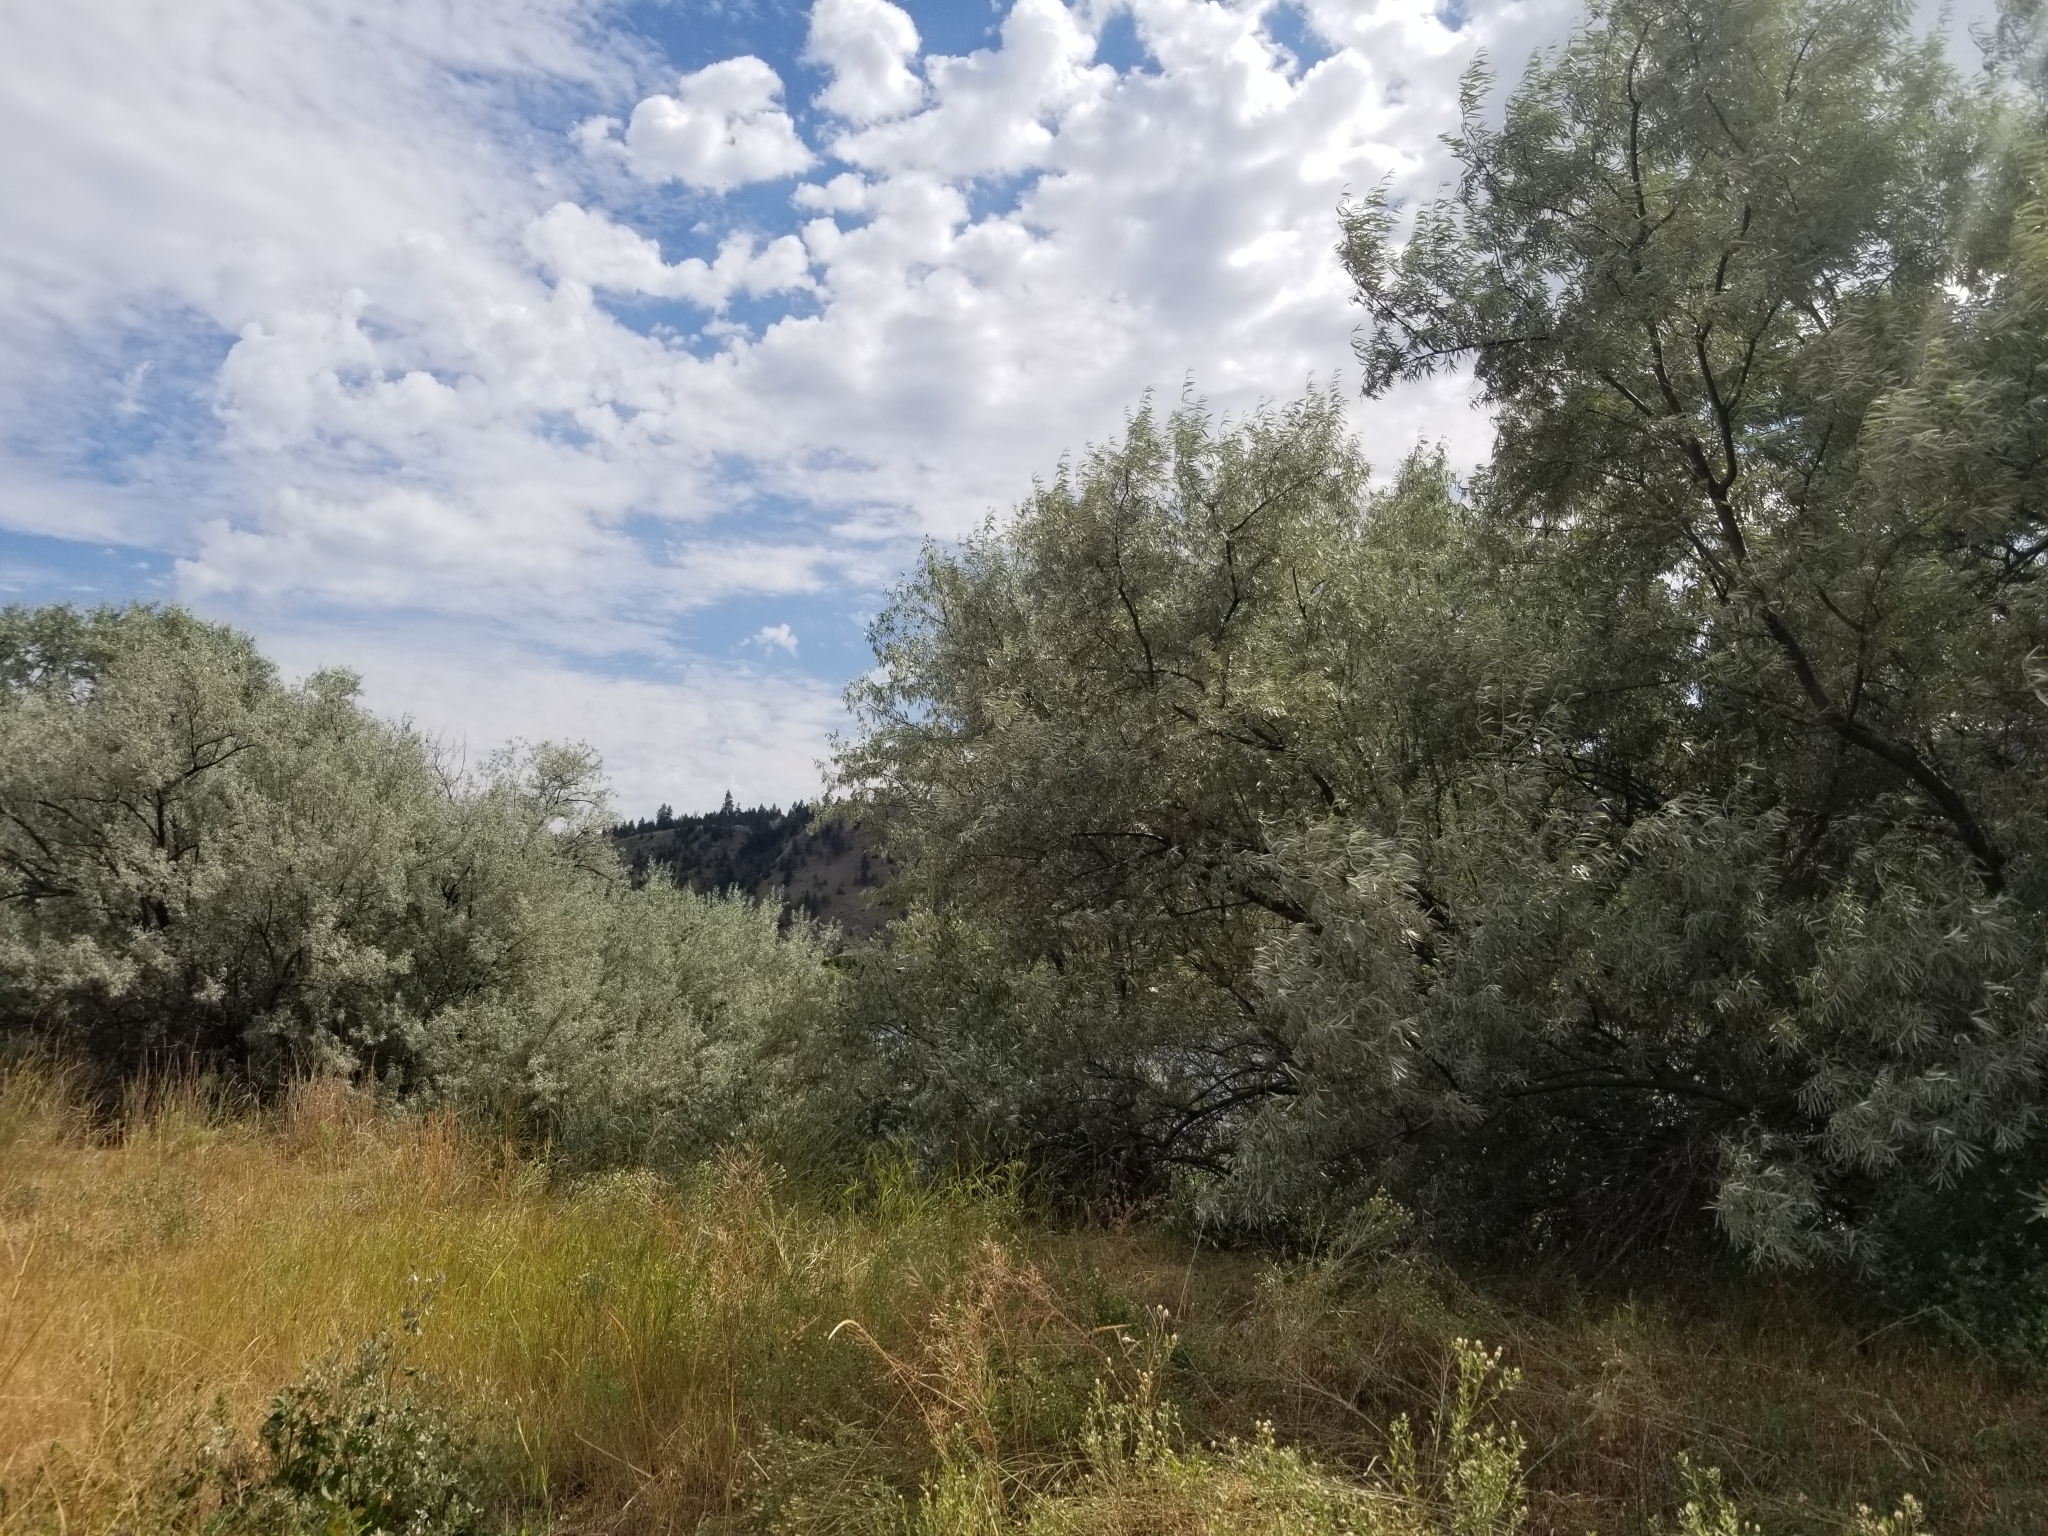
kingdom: Plantae
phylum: Tracheophyta
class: Magnoliopsida
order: Rosales
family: Elaeagnaceae
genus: Elaeagnus
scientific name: Elaeagnus angustifolia
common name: Russian olive
